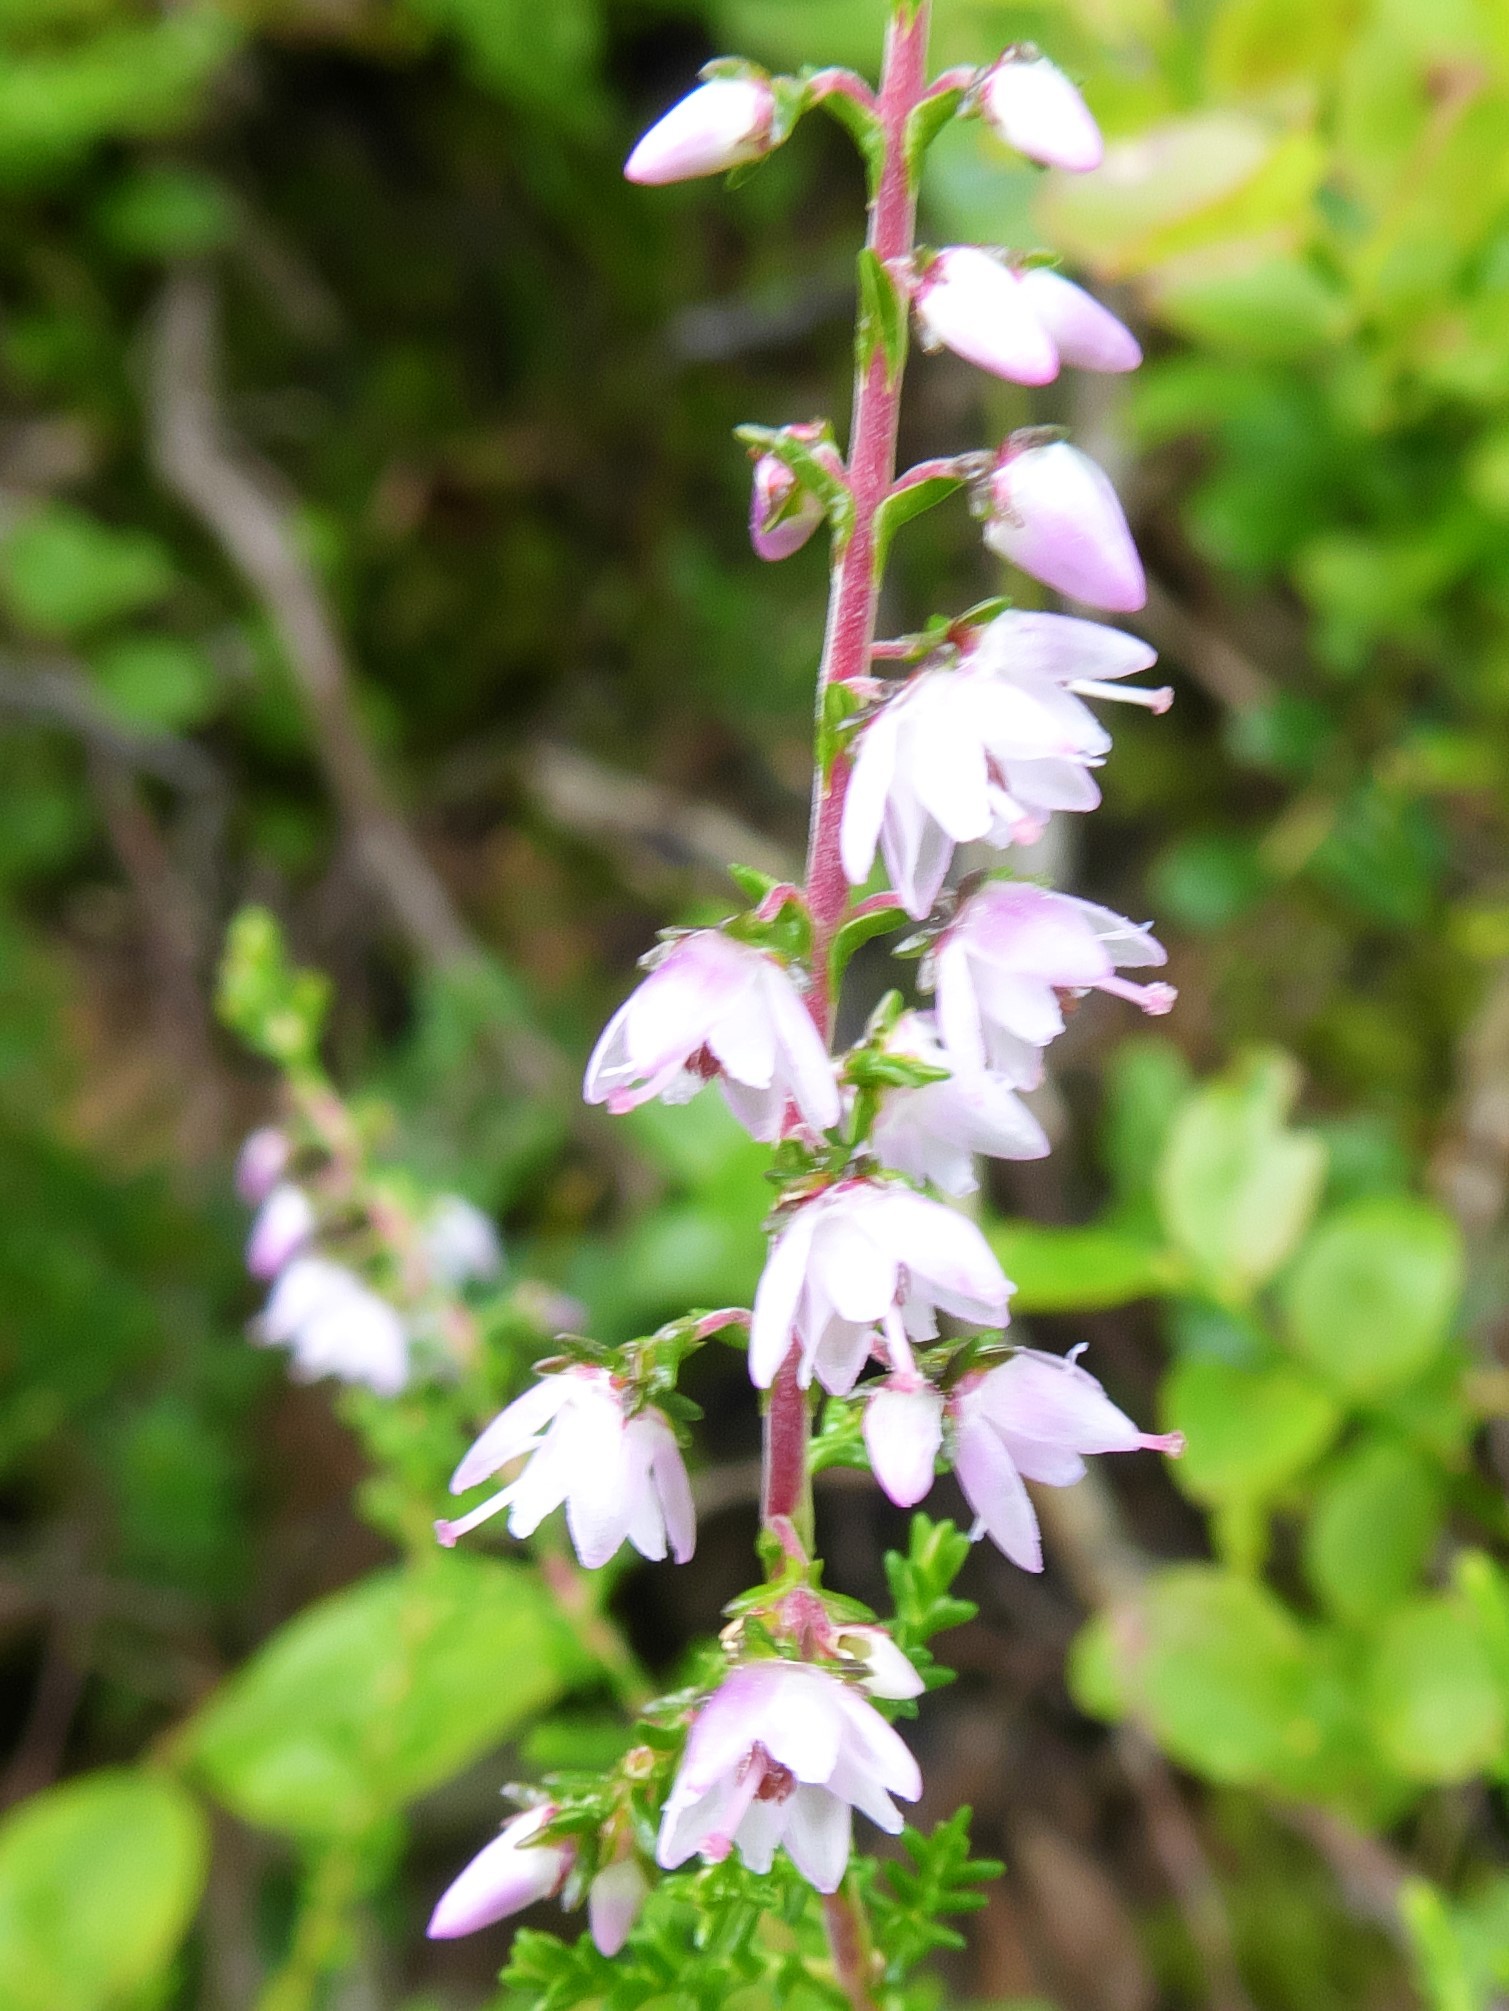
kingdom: Plantae
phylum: Tracheophyta
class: Magnoliopsida
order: Ericales
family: Ericaceae
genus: Calluna
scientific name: Calluna vulgaris
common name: Heather
